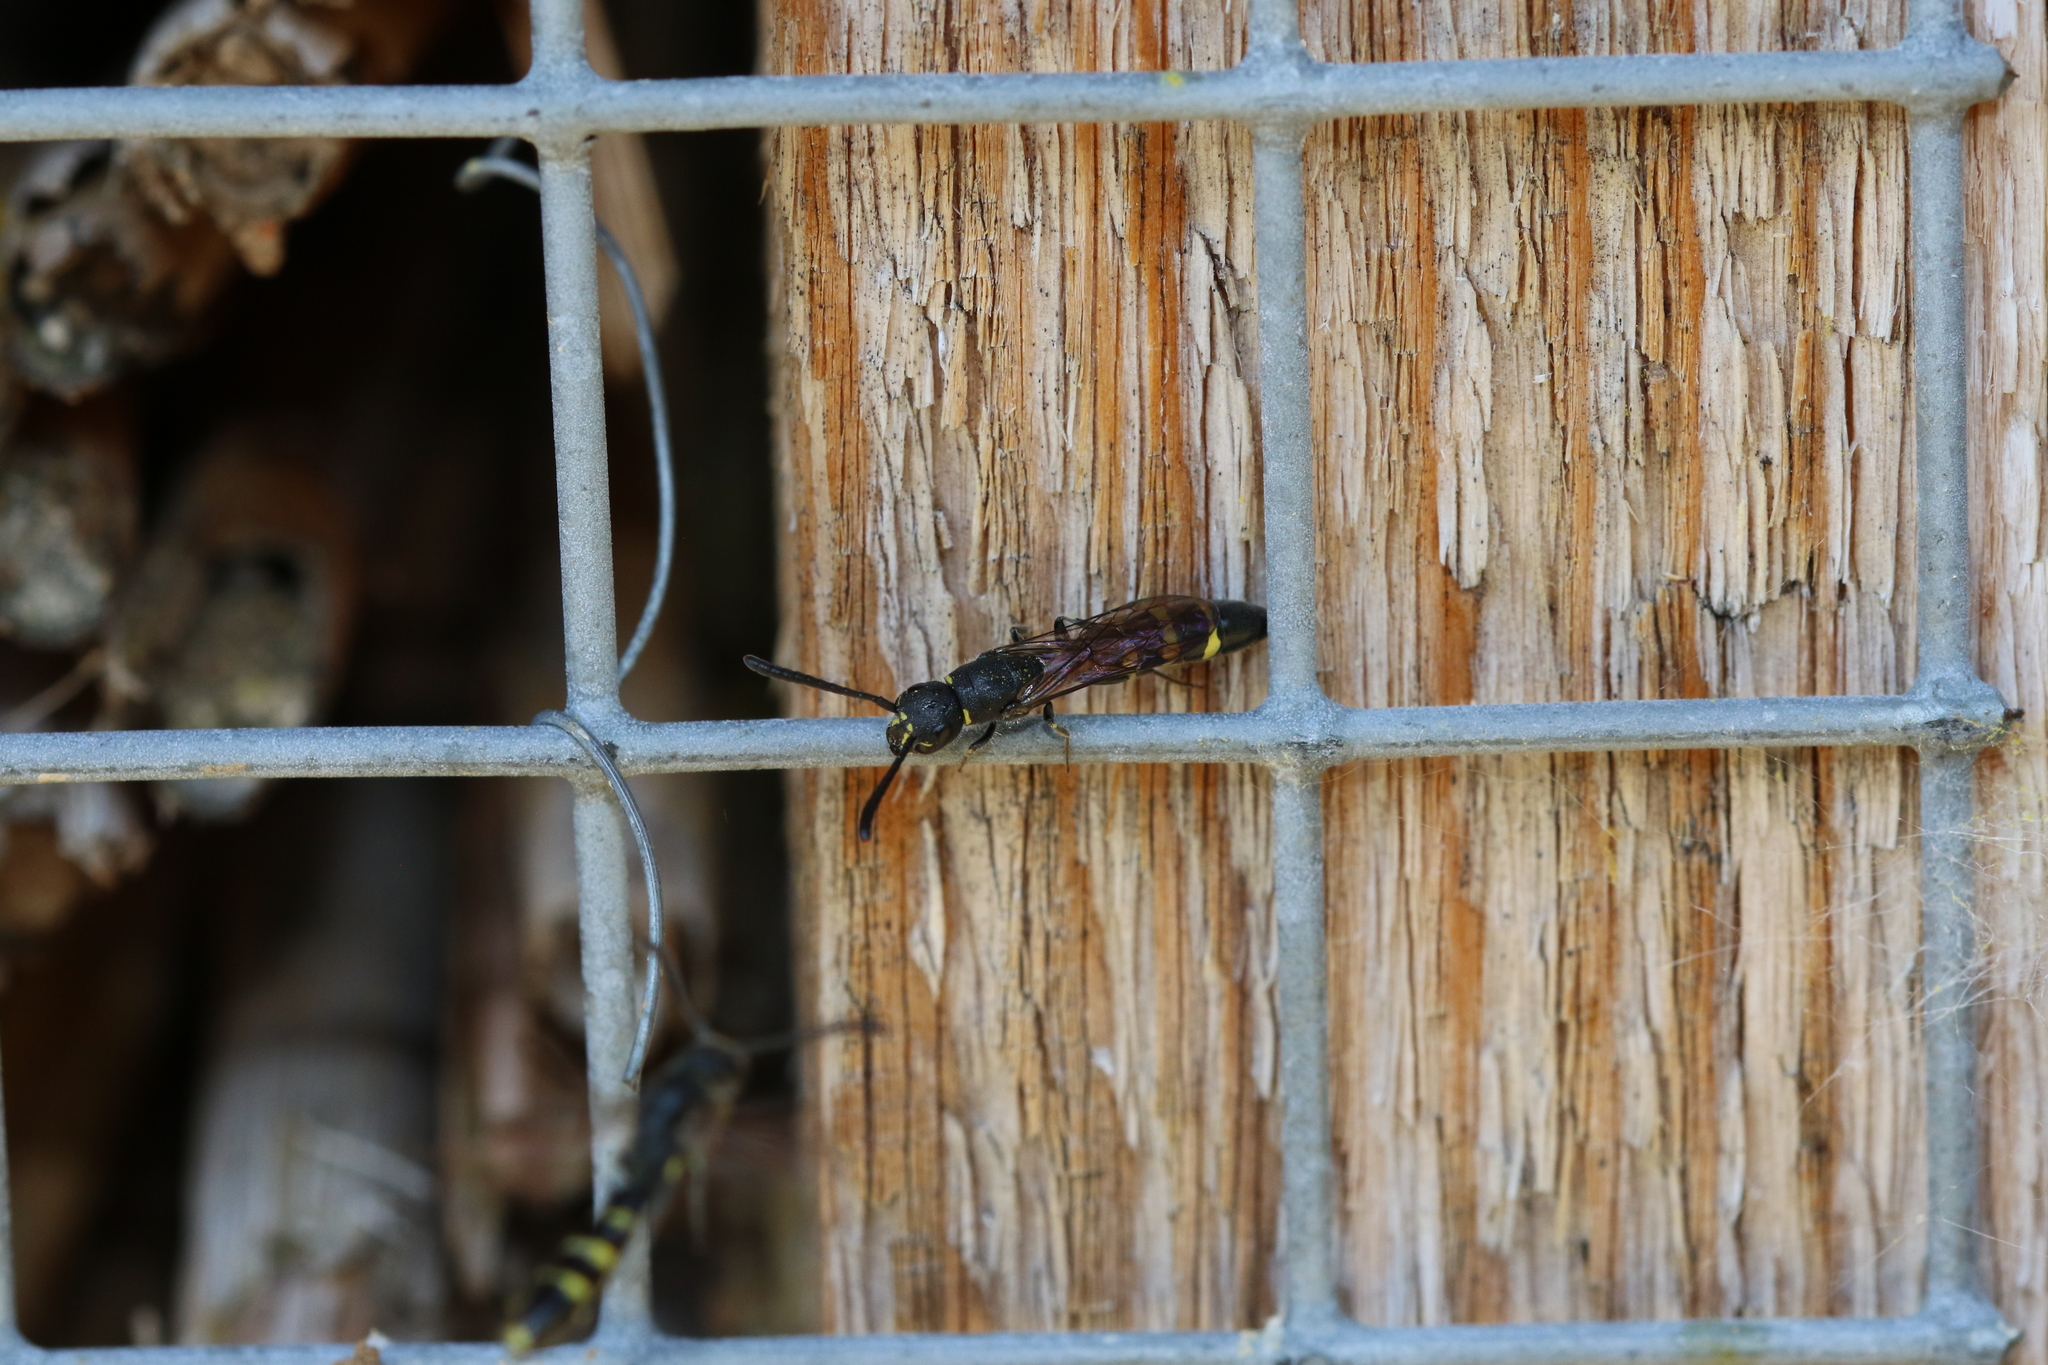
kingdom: Animalia
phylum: Arthropoda
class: Insecta
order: Hymenoptera
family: Sapygidae
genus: Monosapyga
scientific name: Monosapyga clavicornis
